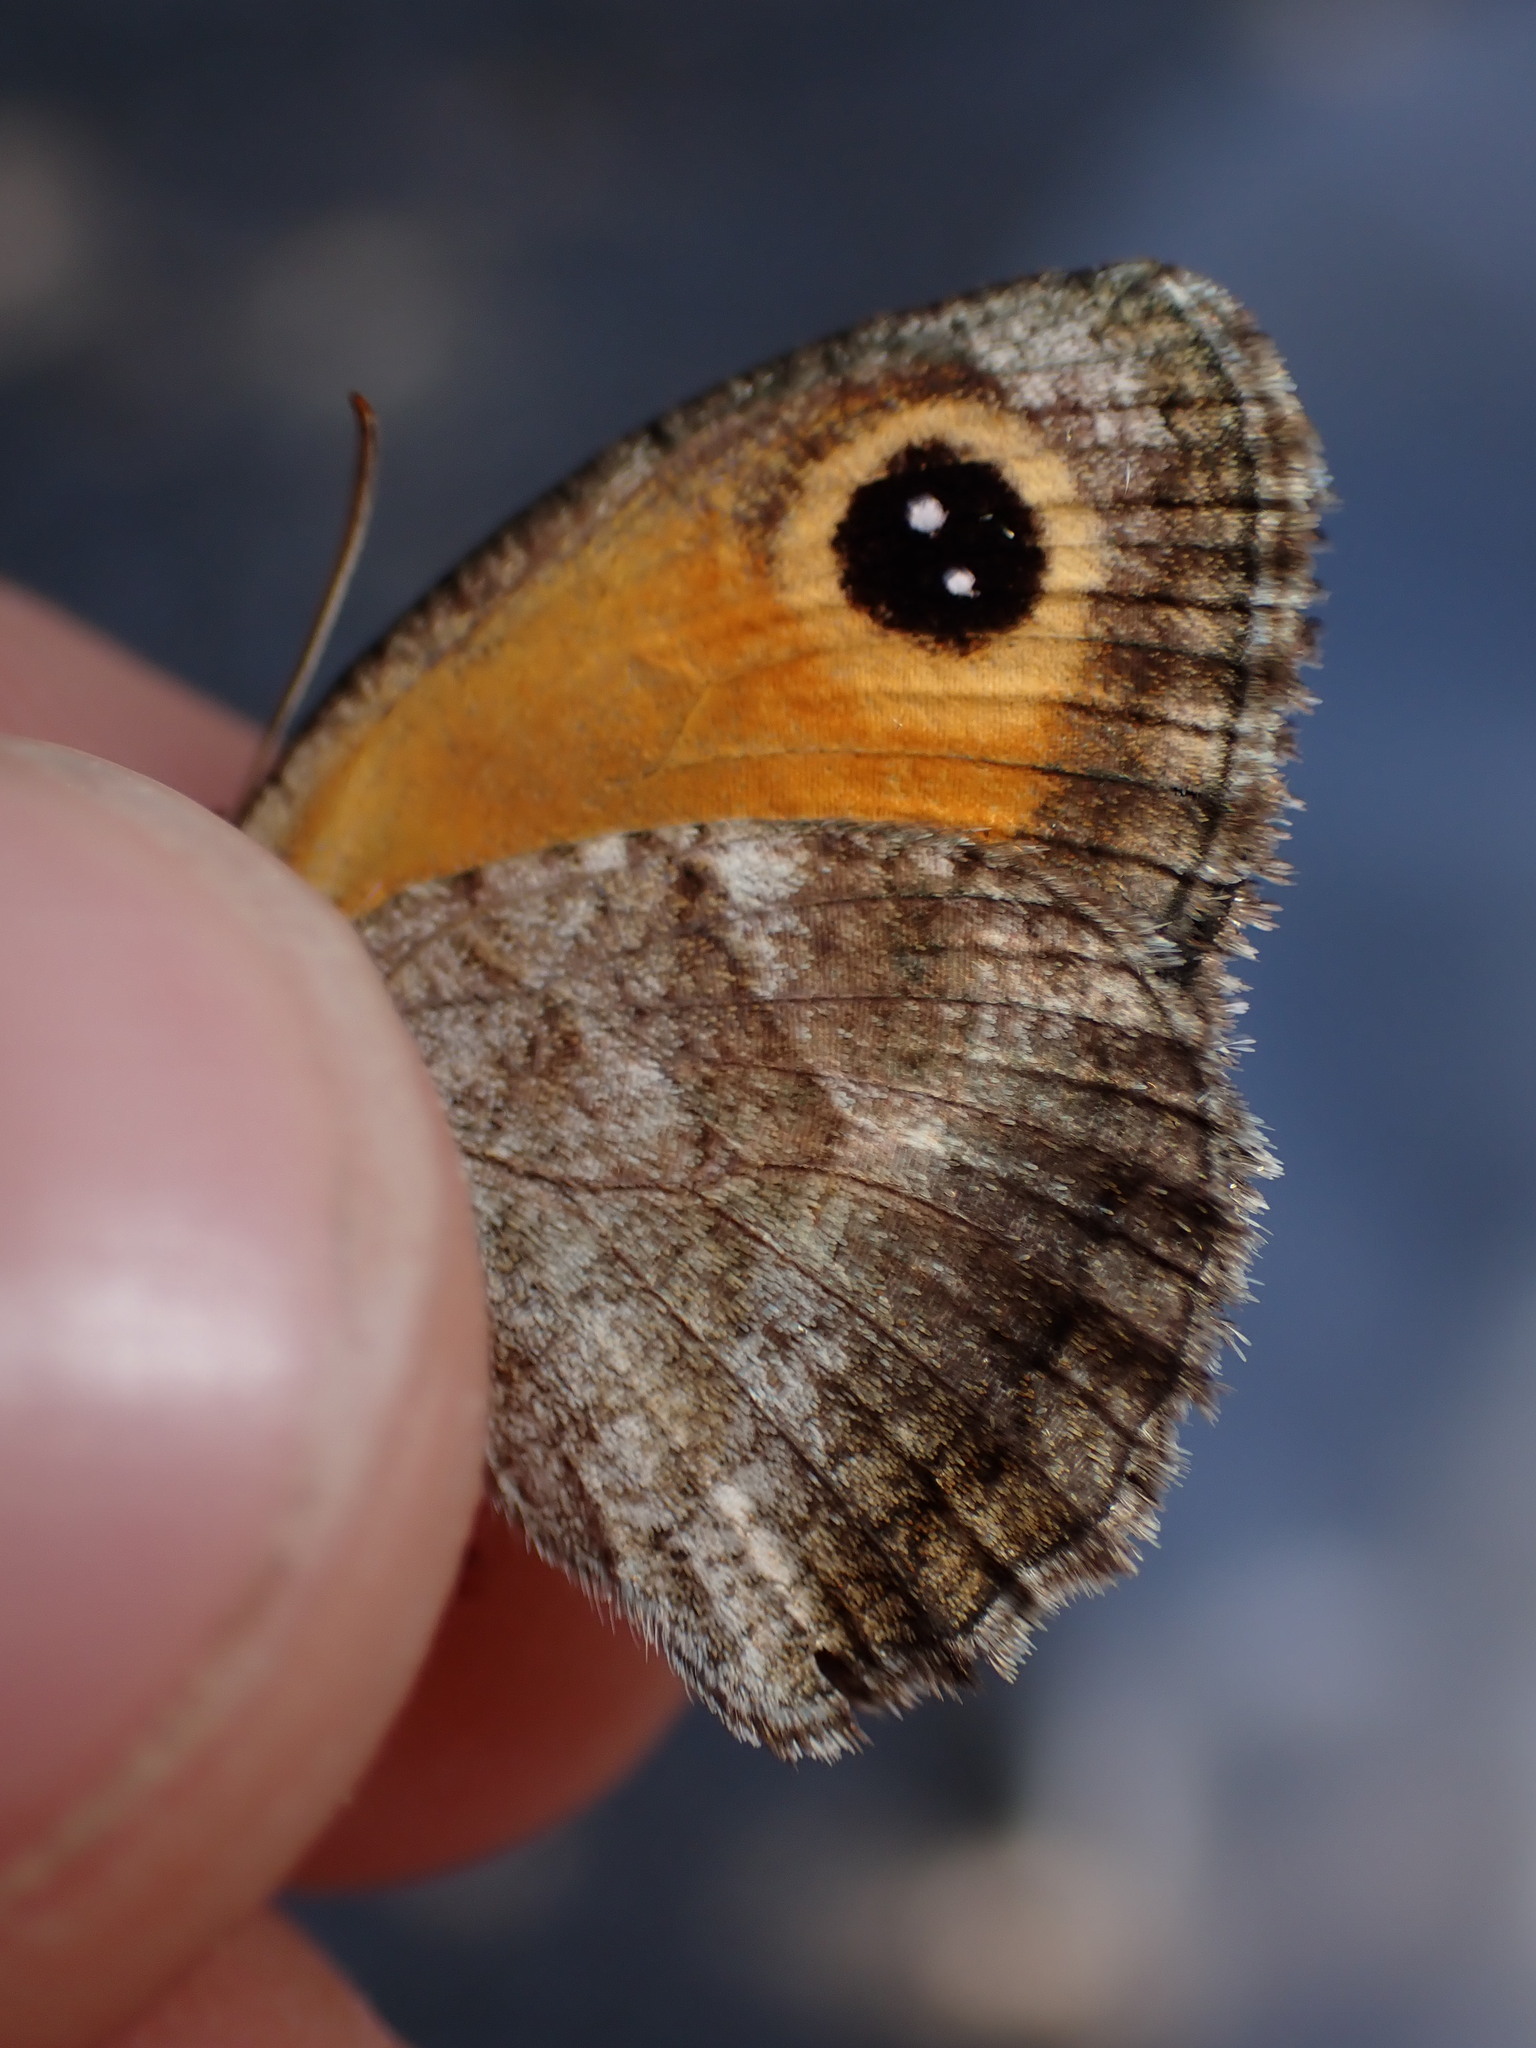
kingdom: Animalia
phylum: Arthropoda
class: Insecta
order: Lepidoptera
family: Nymphalidae
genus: Pyronia
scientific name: Pyronia cecilia
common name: Southern gatekeeper
